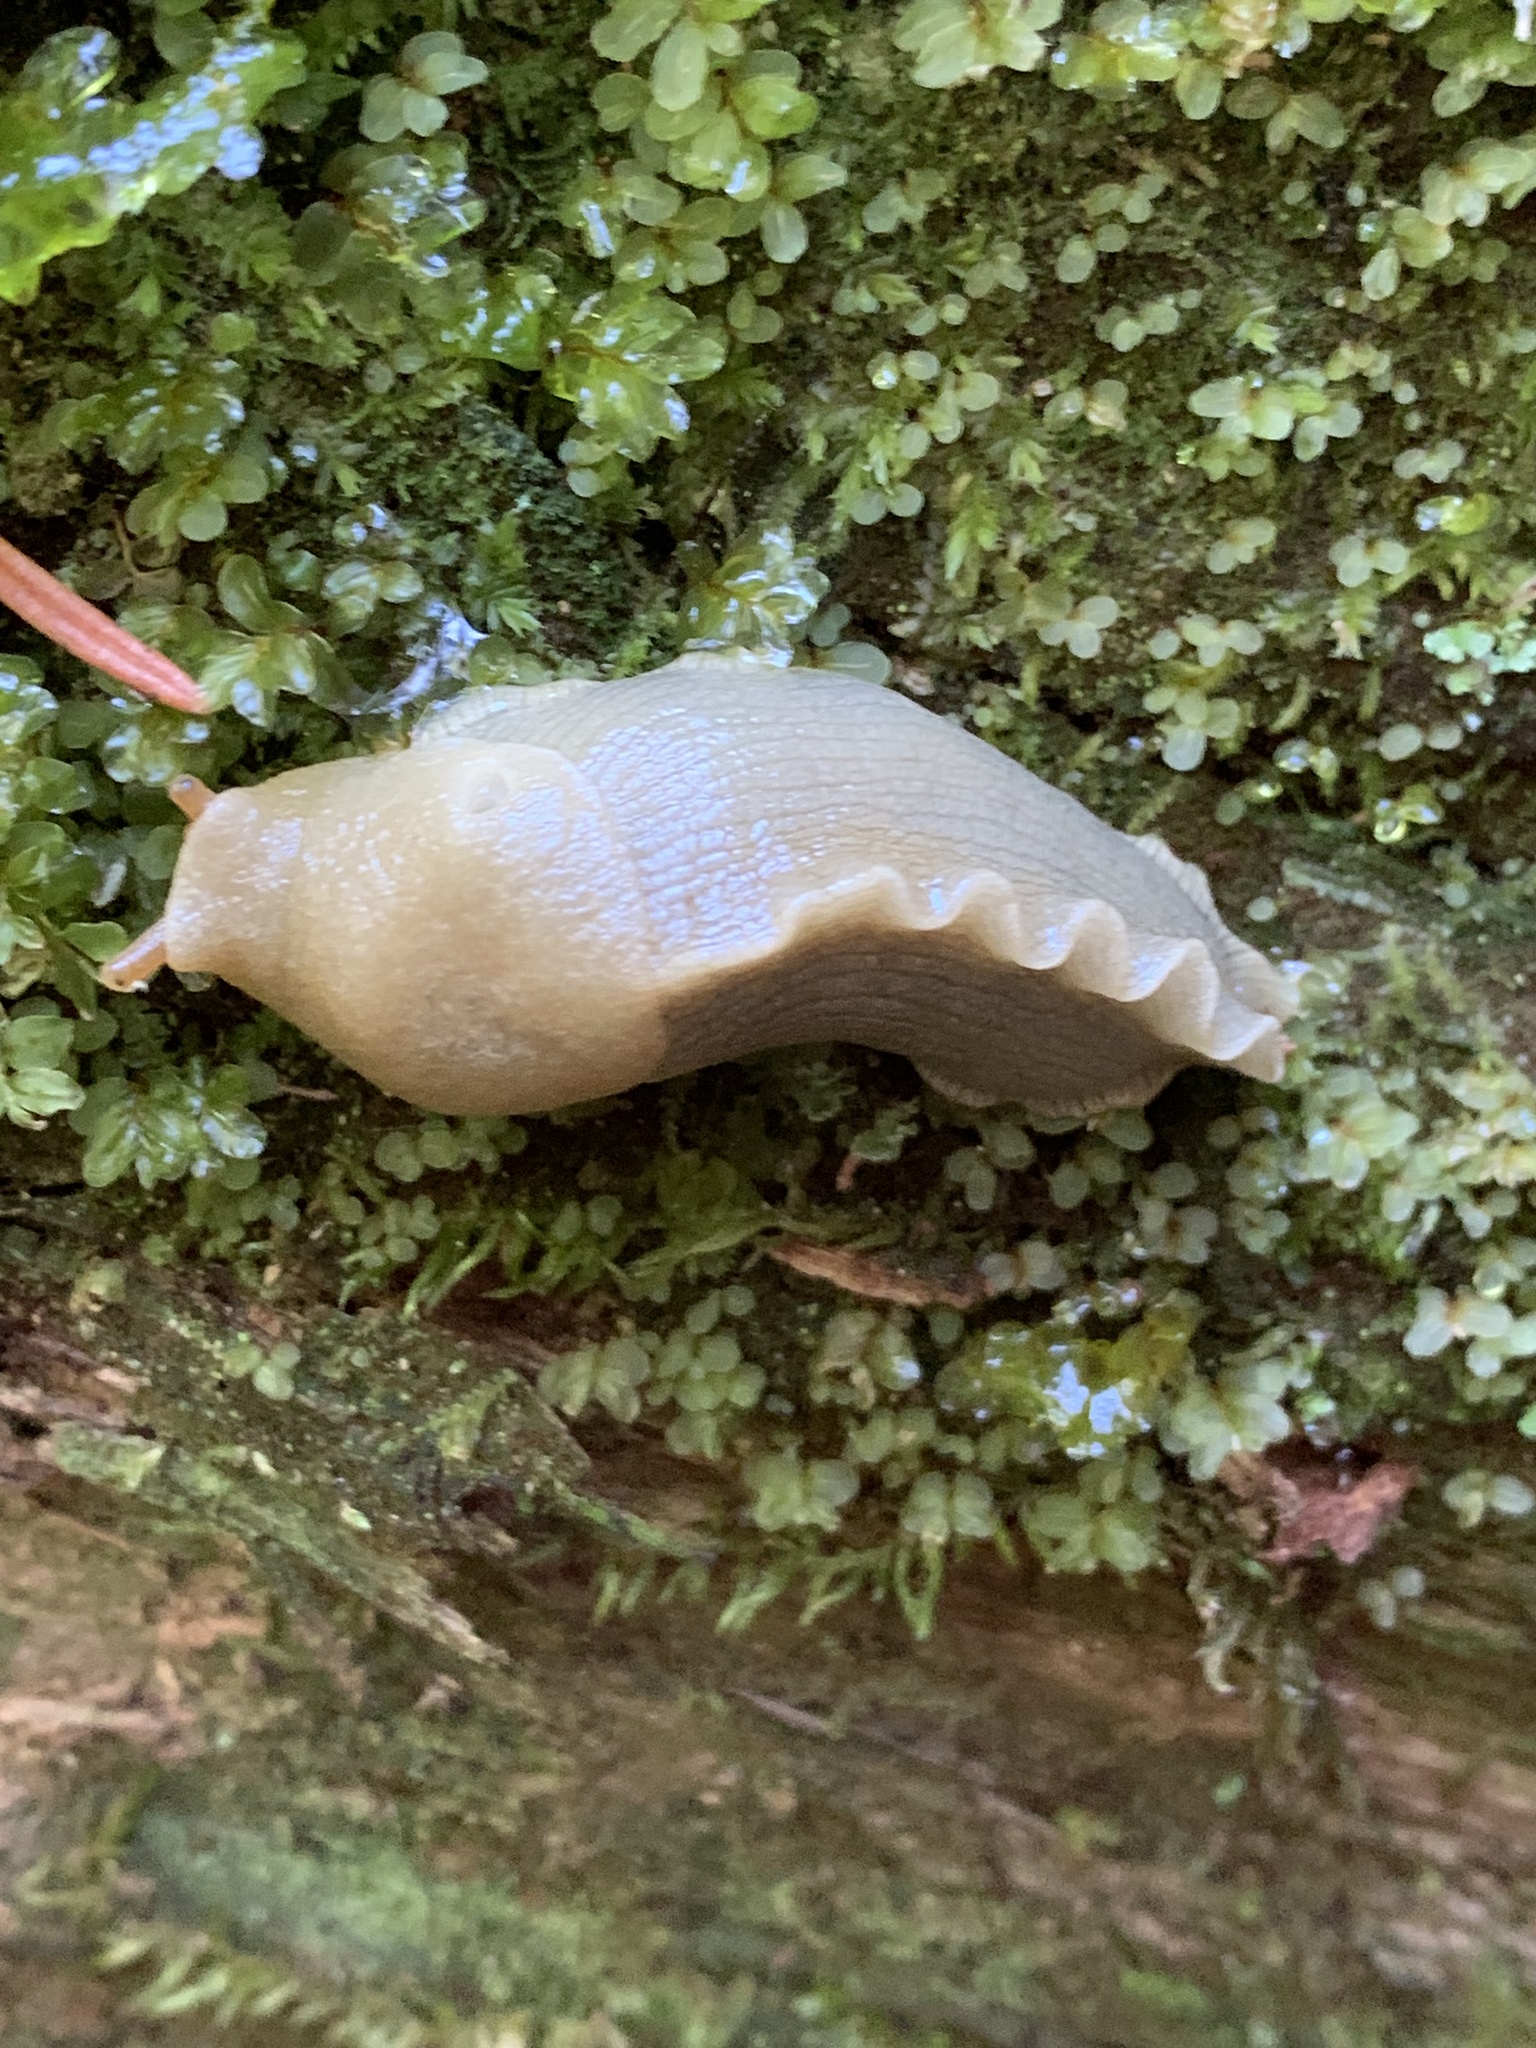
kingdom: Animalia
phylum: Mollusca
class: Gastropoda
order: Stylommatophora
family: Ariolimacidae
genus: Ariolimax
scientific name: Ariolimax columbianus
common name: Pacific banana slug
